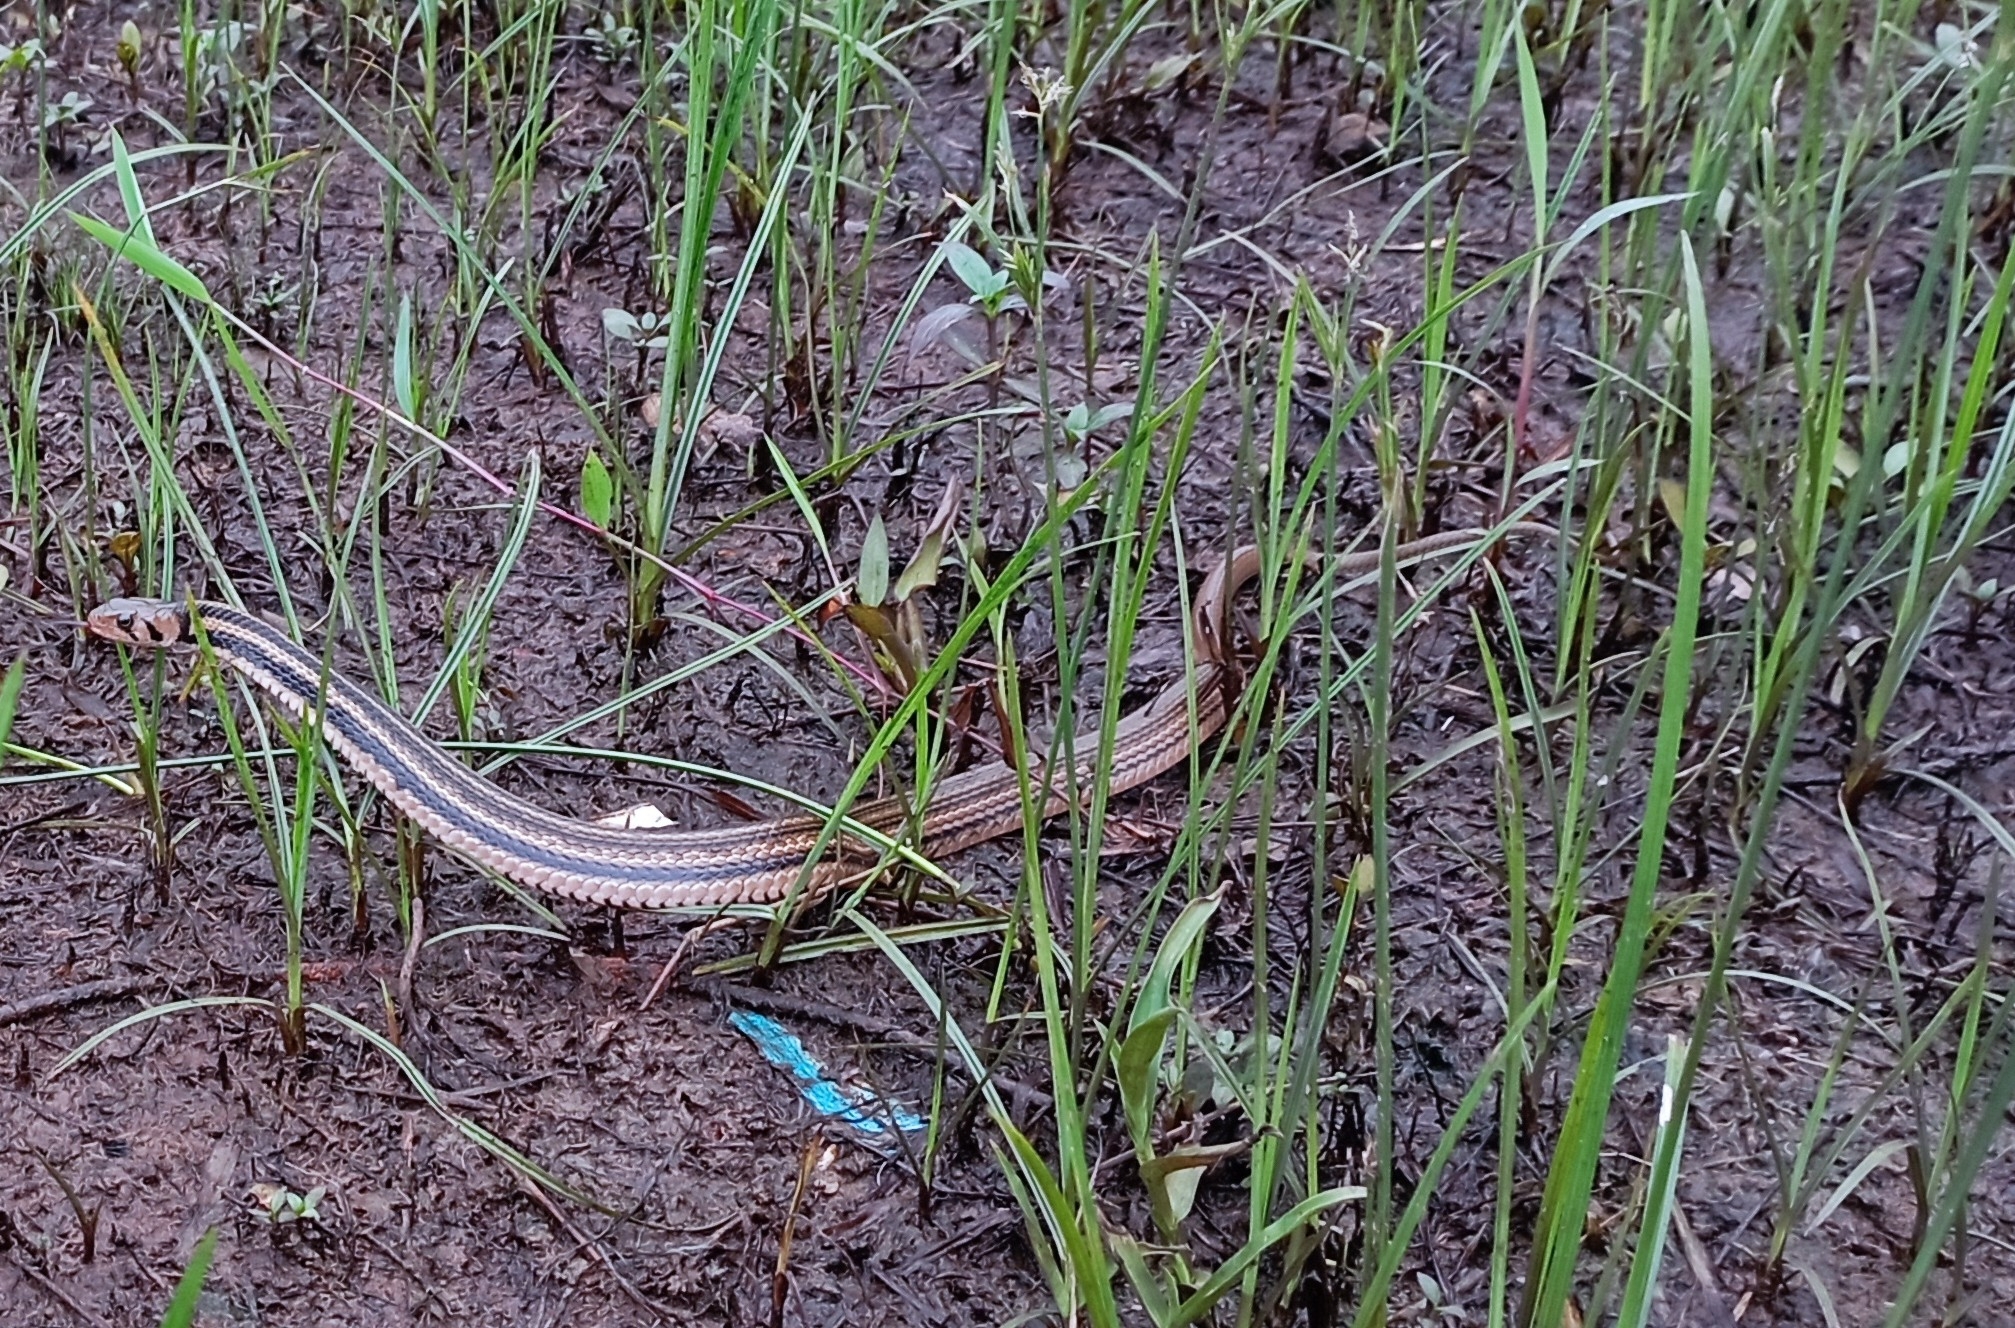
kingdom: Animalia
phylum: Chordata
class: Squamata
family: Colubridae
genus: Fowlea
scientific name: Fowlea melanzostus
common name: Javanese keelback water snake
